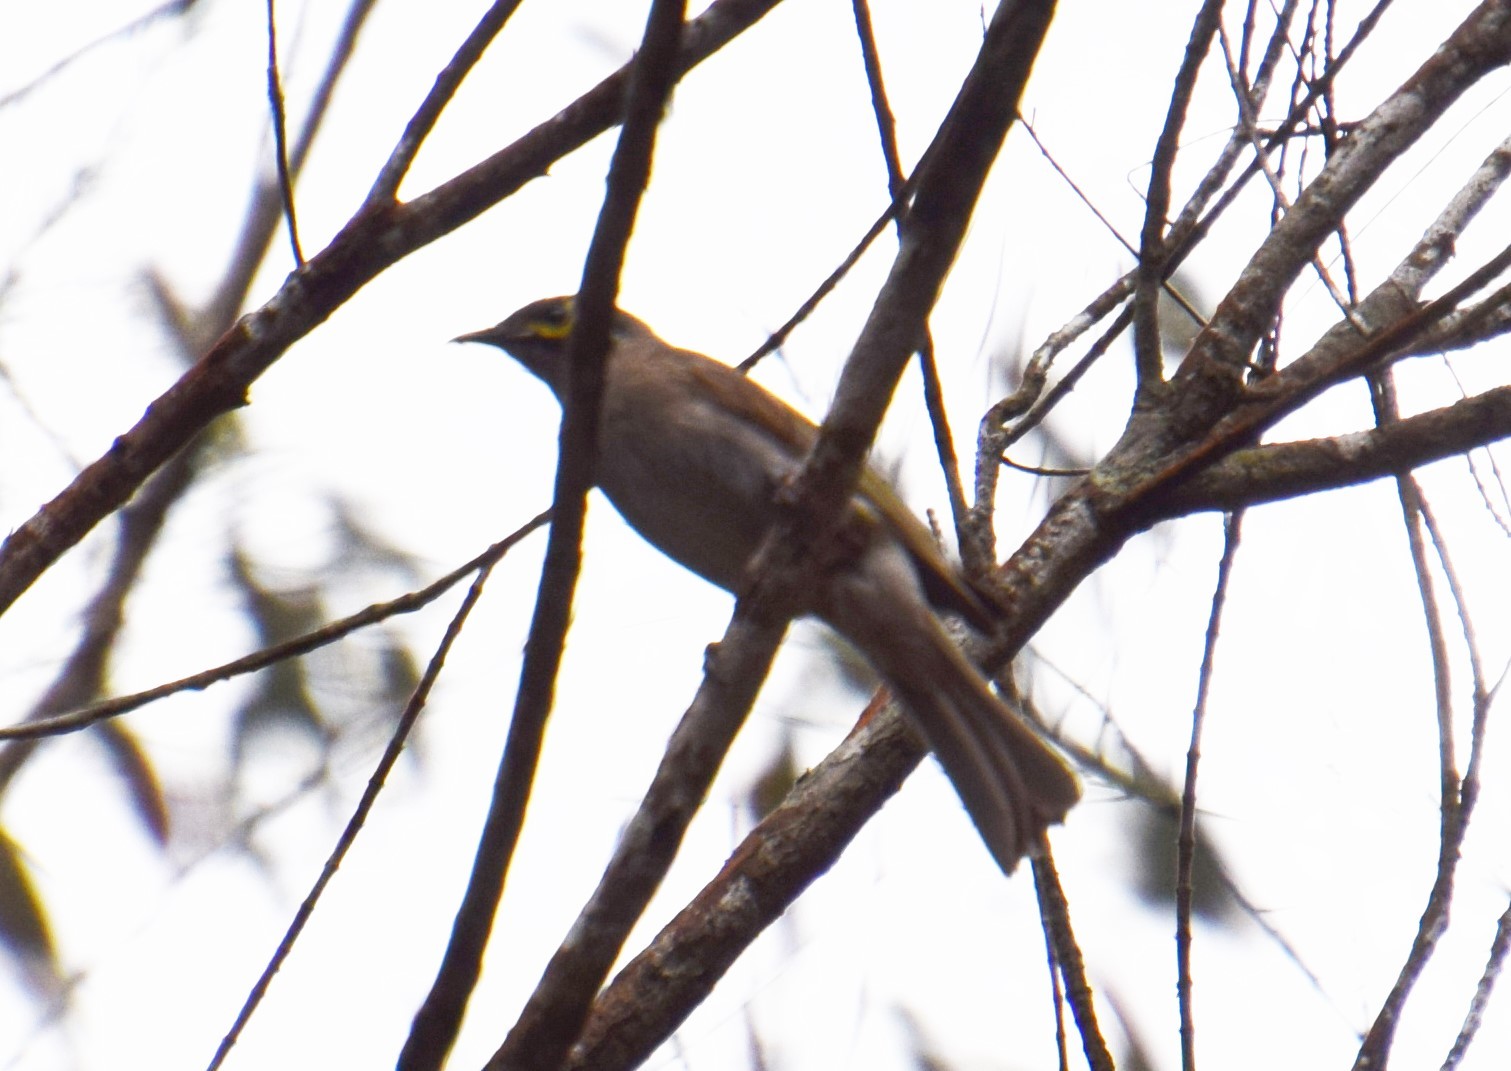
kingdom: Animalia
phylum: Chordata
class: Aves
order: Passeriformes
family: Meliphagidae
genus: Caligavis
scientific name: Caligavis chrysops
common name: Yellow-faced honeyeater
